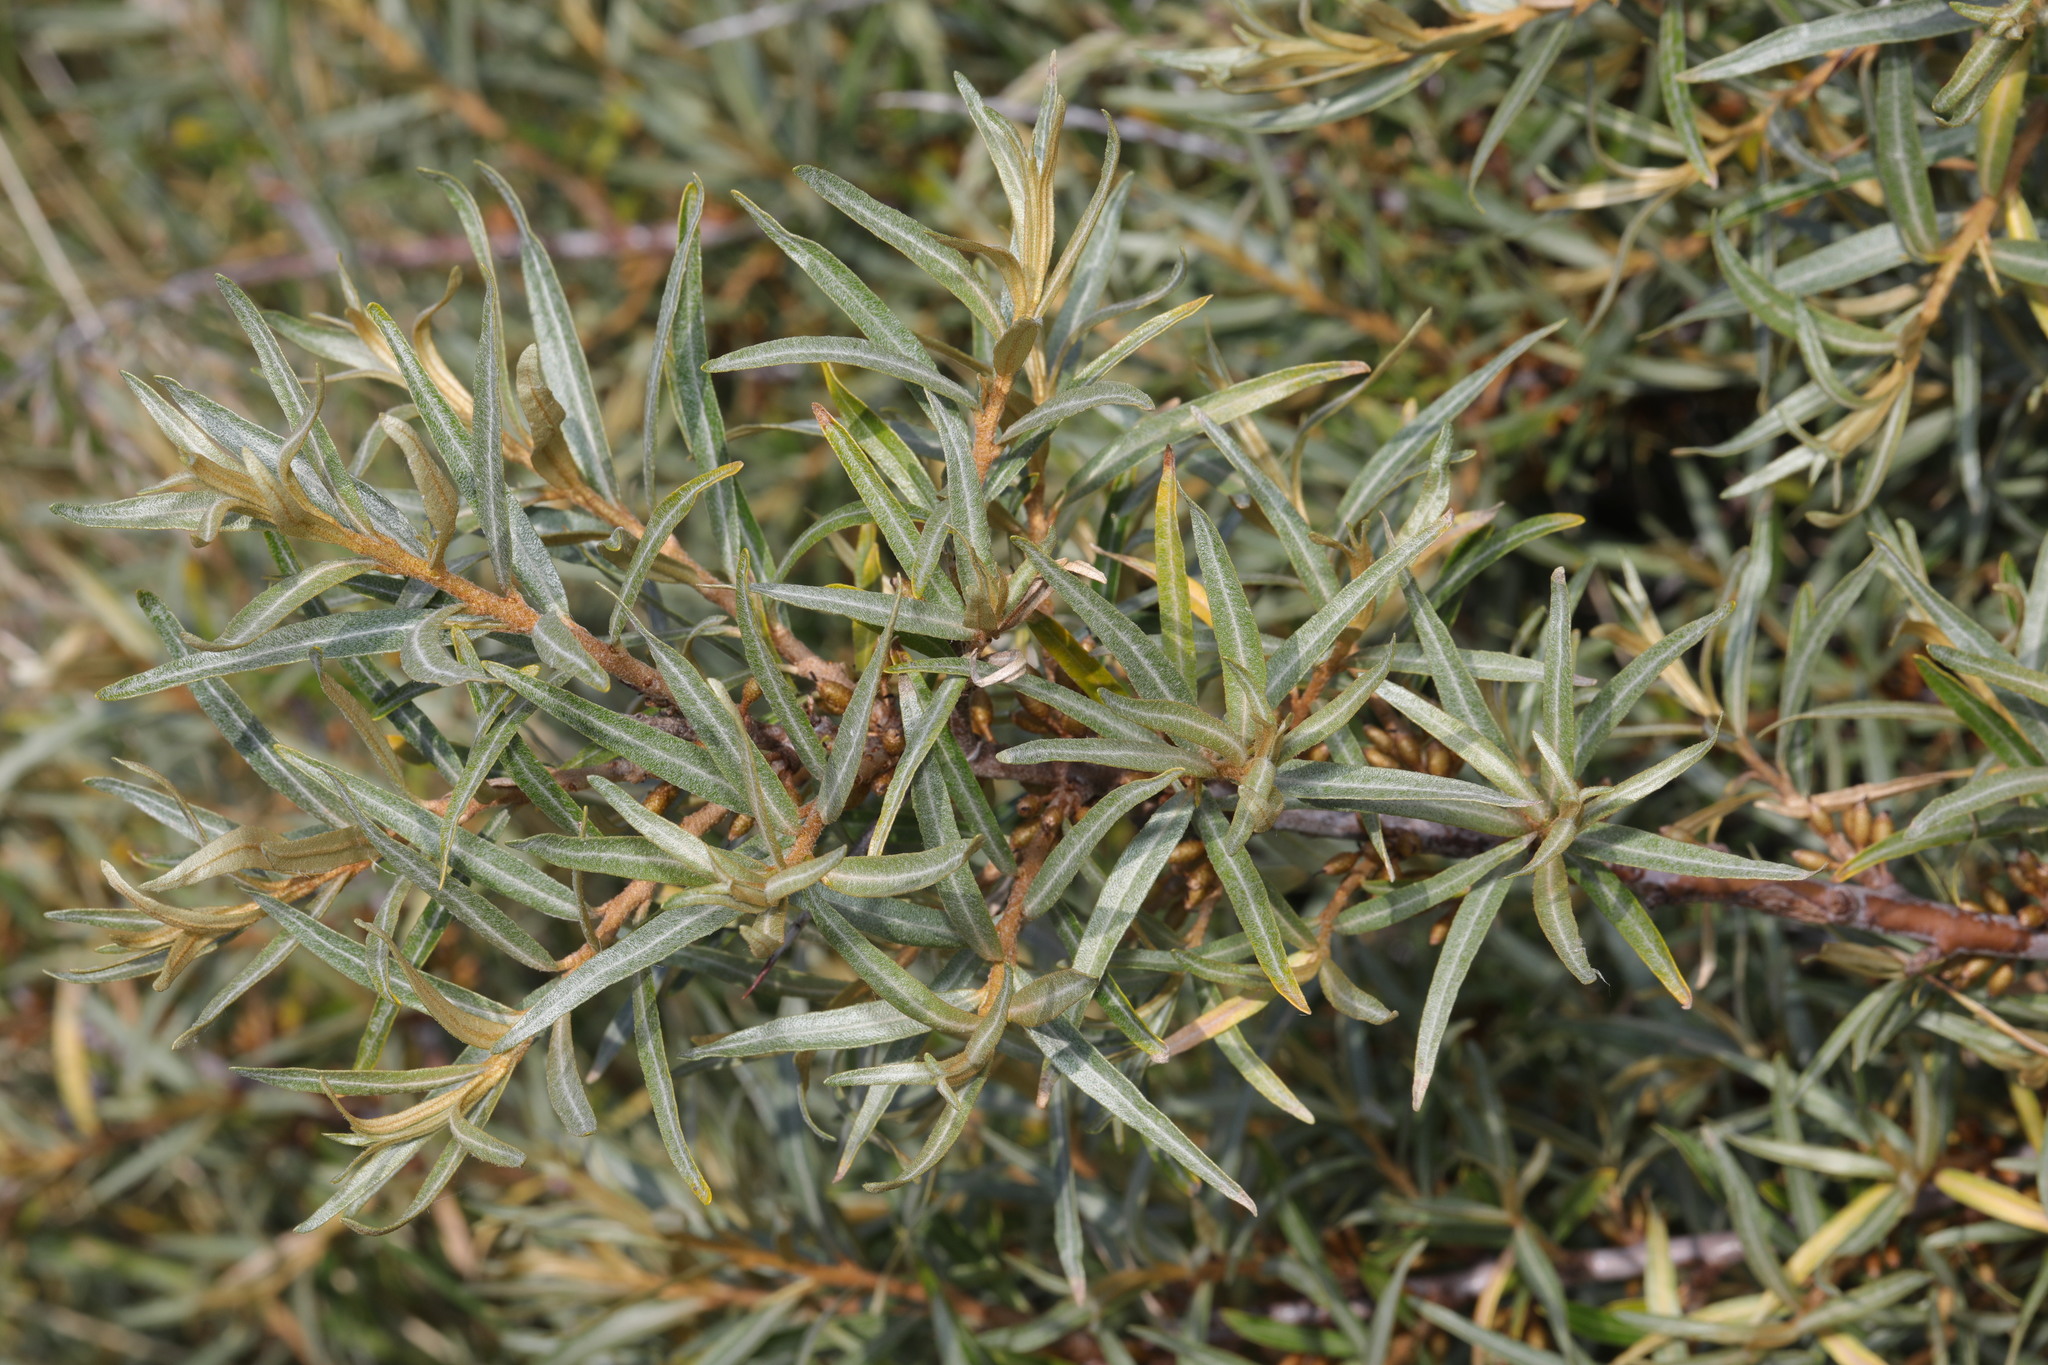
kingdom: Plantae
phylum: Tracheophyta
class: Magnoliopsida
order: Rosales
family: Elaeagnaceae
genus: Hippophae
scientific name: Hippophae rhamnoides
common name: Sea-buckthorn
